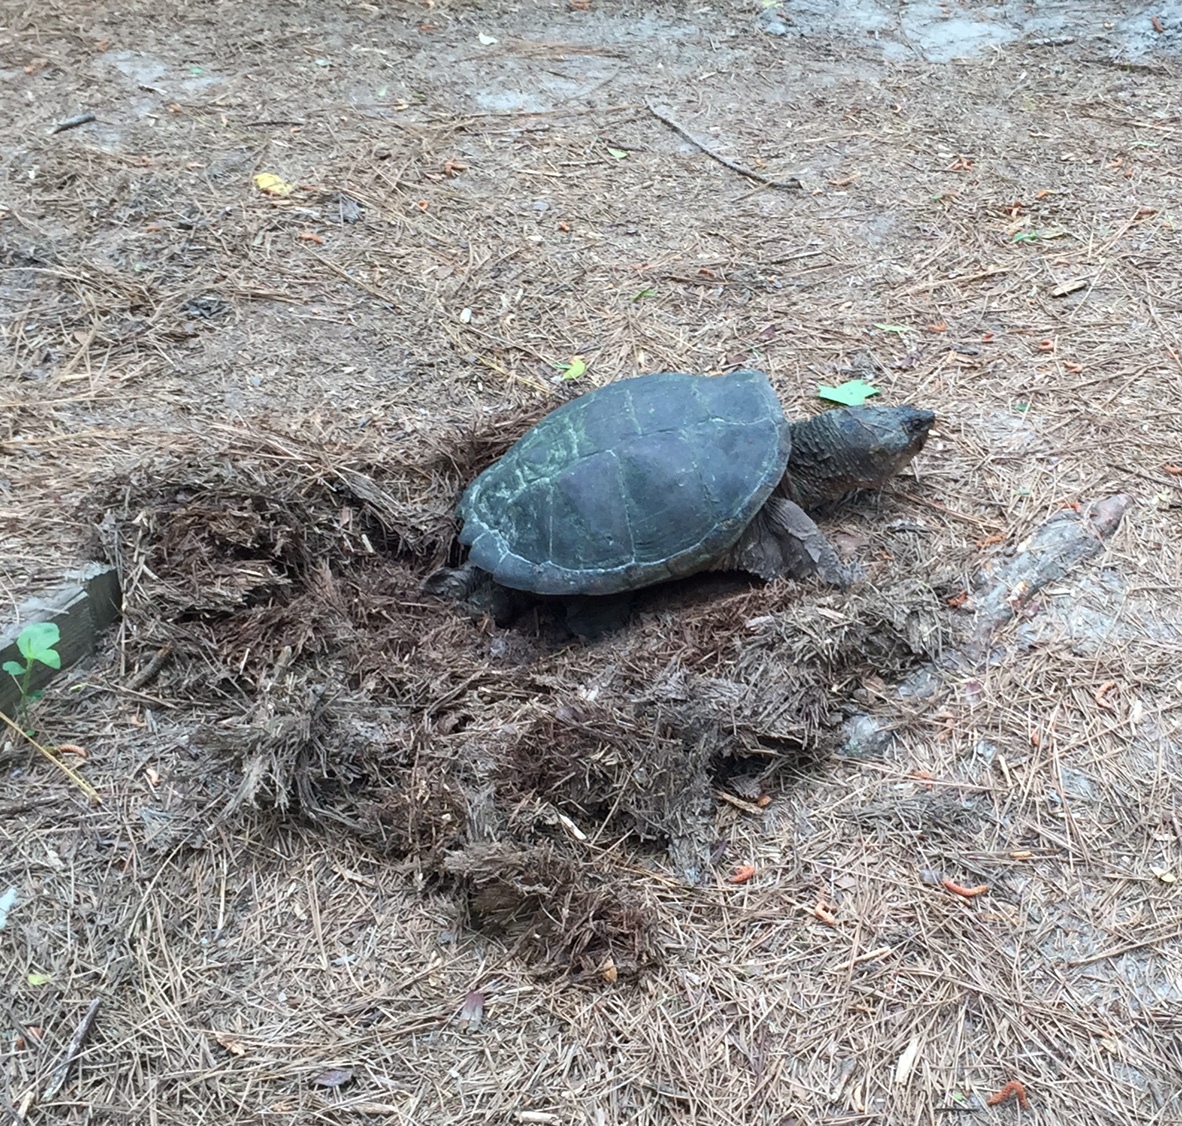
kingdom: Animalia
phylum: Chordata
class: Testudines
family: Chelydridae
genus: Chelydra
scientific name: Chelydra serpentina
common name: Common snapping turtle
